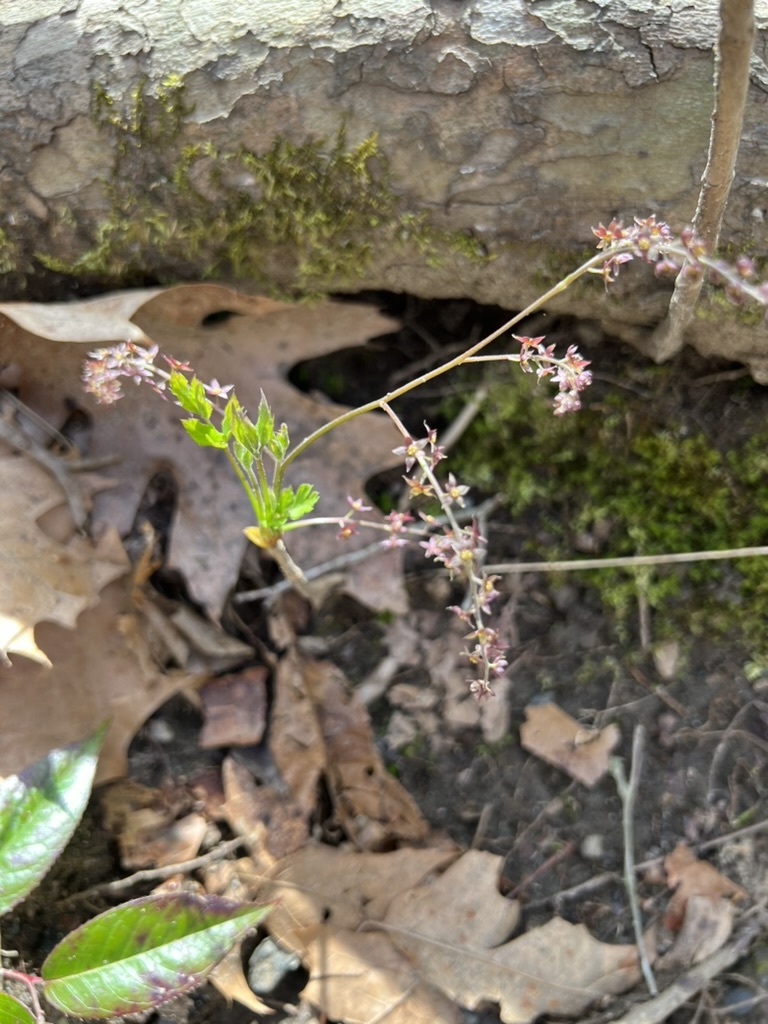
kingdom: Plantae
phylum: Tracheophyta
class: Magnoliopsida
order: Ranunculales
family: Ranunculaceae
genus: Xanthorhiza
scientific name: Xanthorhiza simplicissima
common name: Yellowroot
